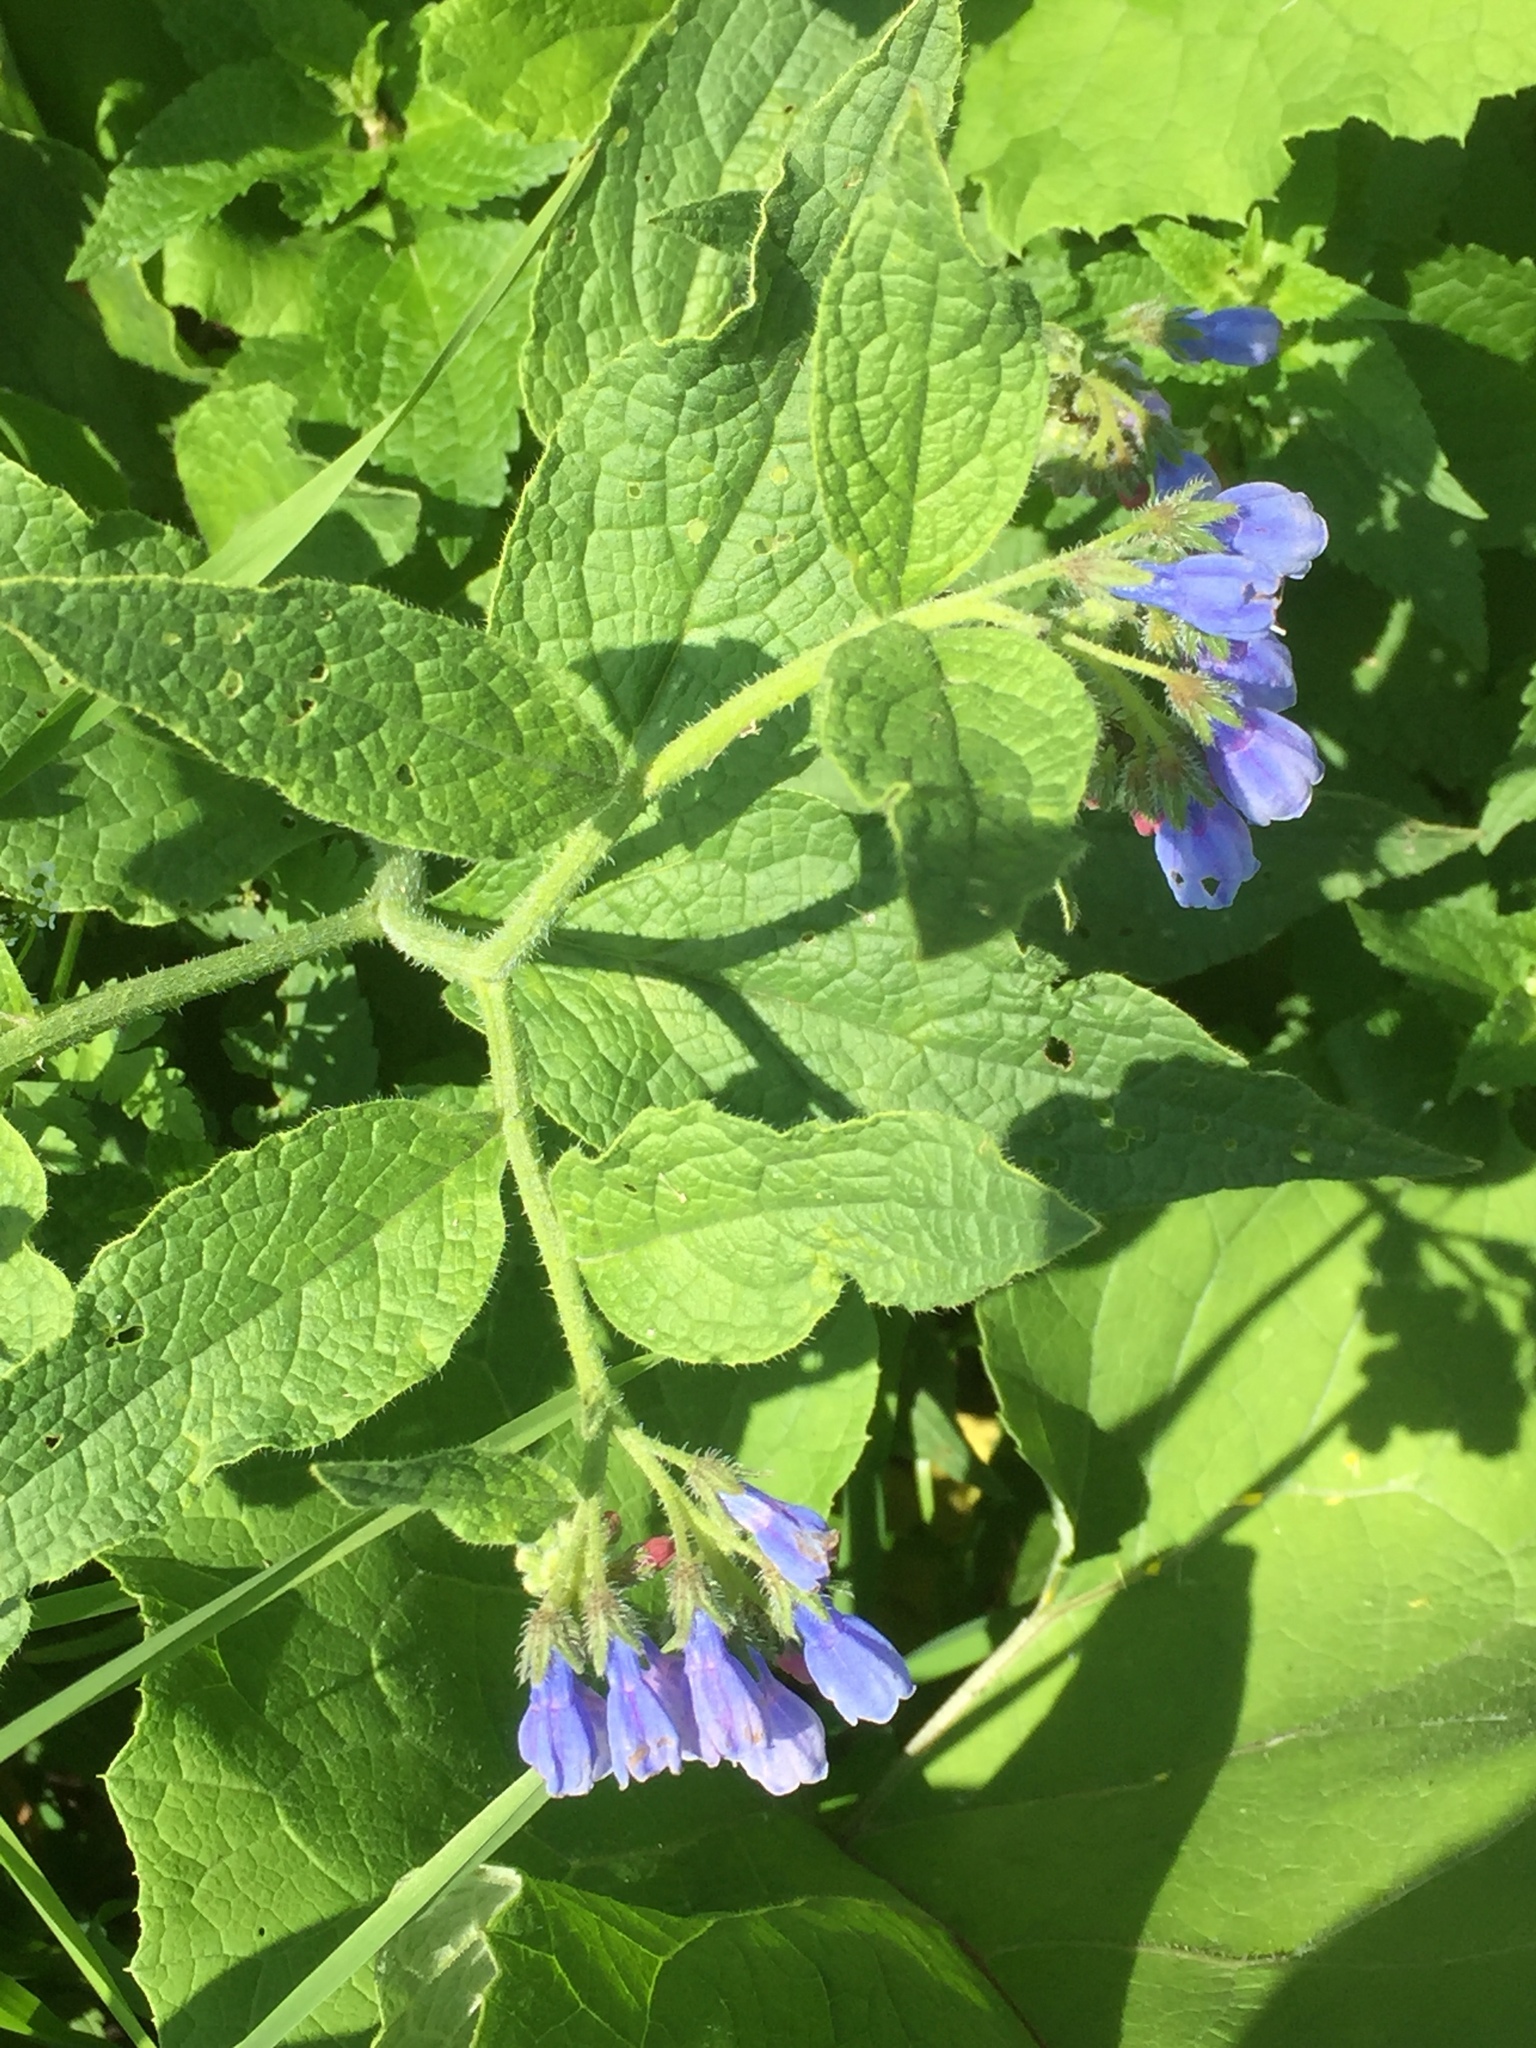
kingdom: Plantae
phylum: Tracheophyta
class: Magnoliopsida
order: Boraginales
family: Boraginaceae
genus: Symphytum
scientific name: Symphytum caucasicum
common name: Caucasian comfrey
